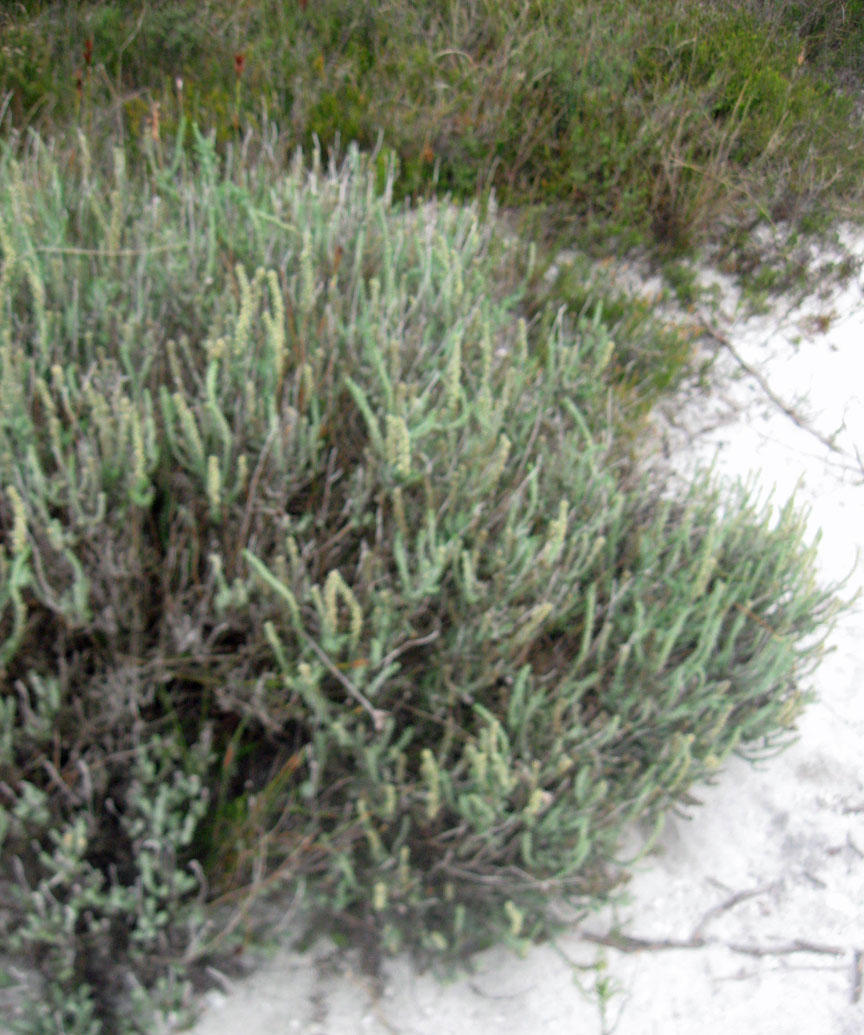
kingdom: Plantae
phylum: Tracheophyta
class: Magnoliopsida
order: Asterales
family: Asteraceae
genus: Ifloga
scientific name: Ifloga ambigua
